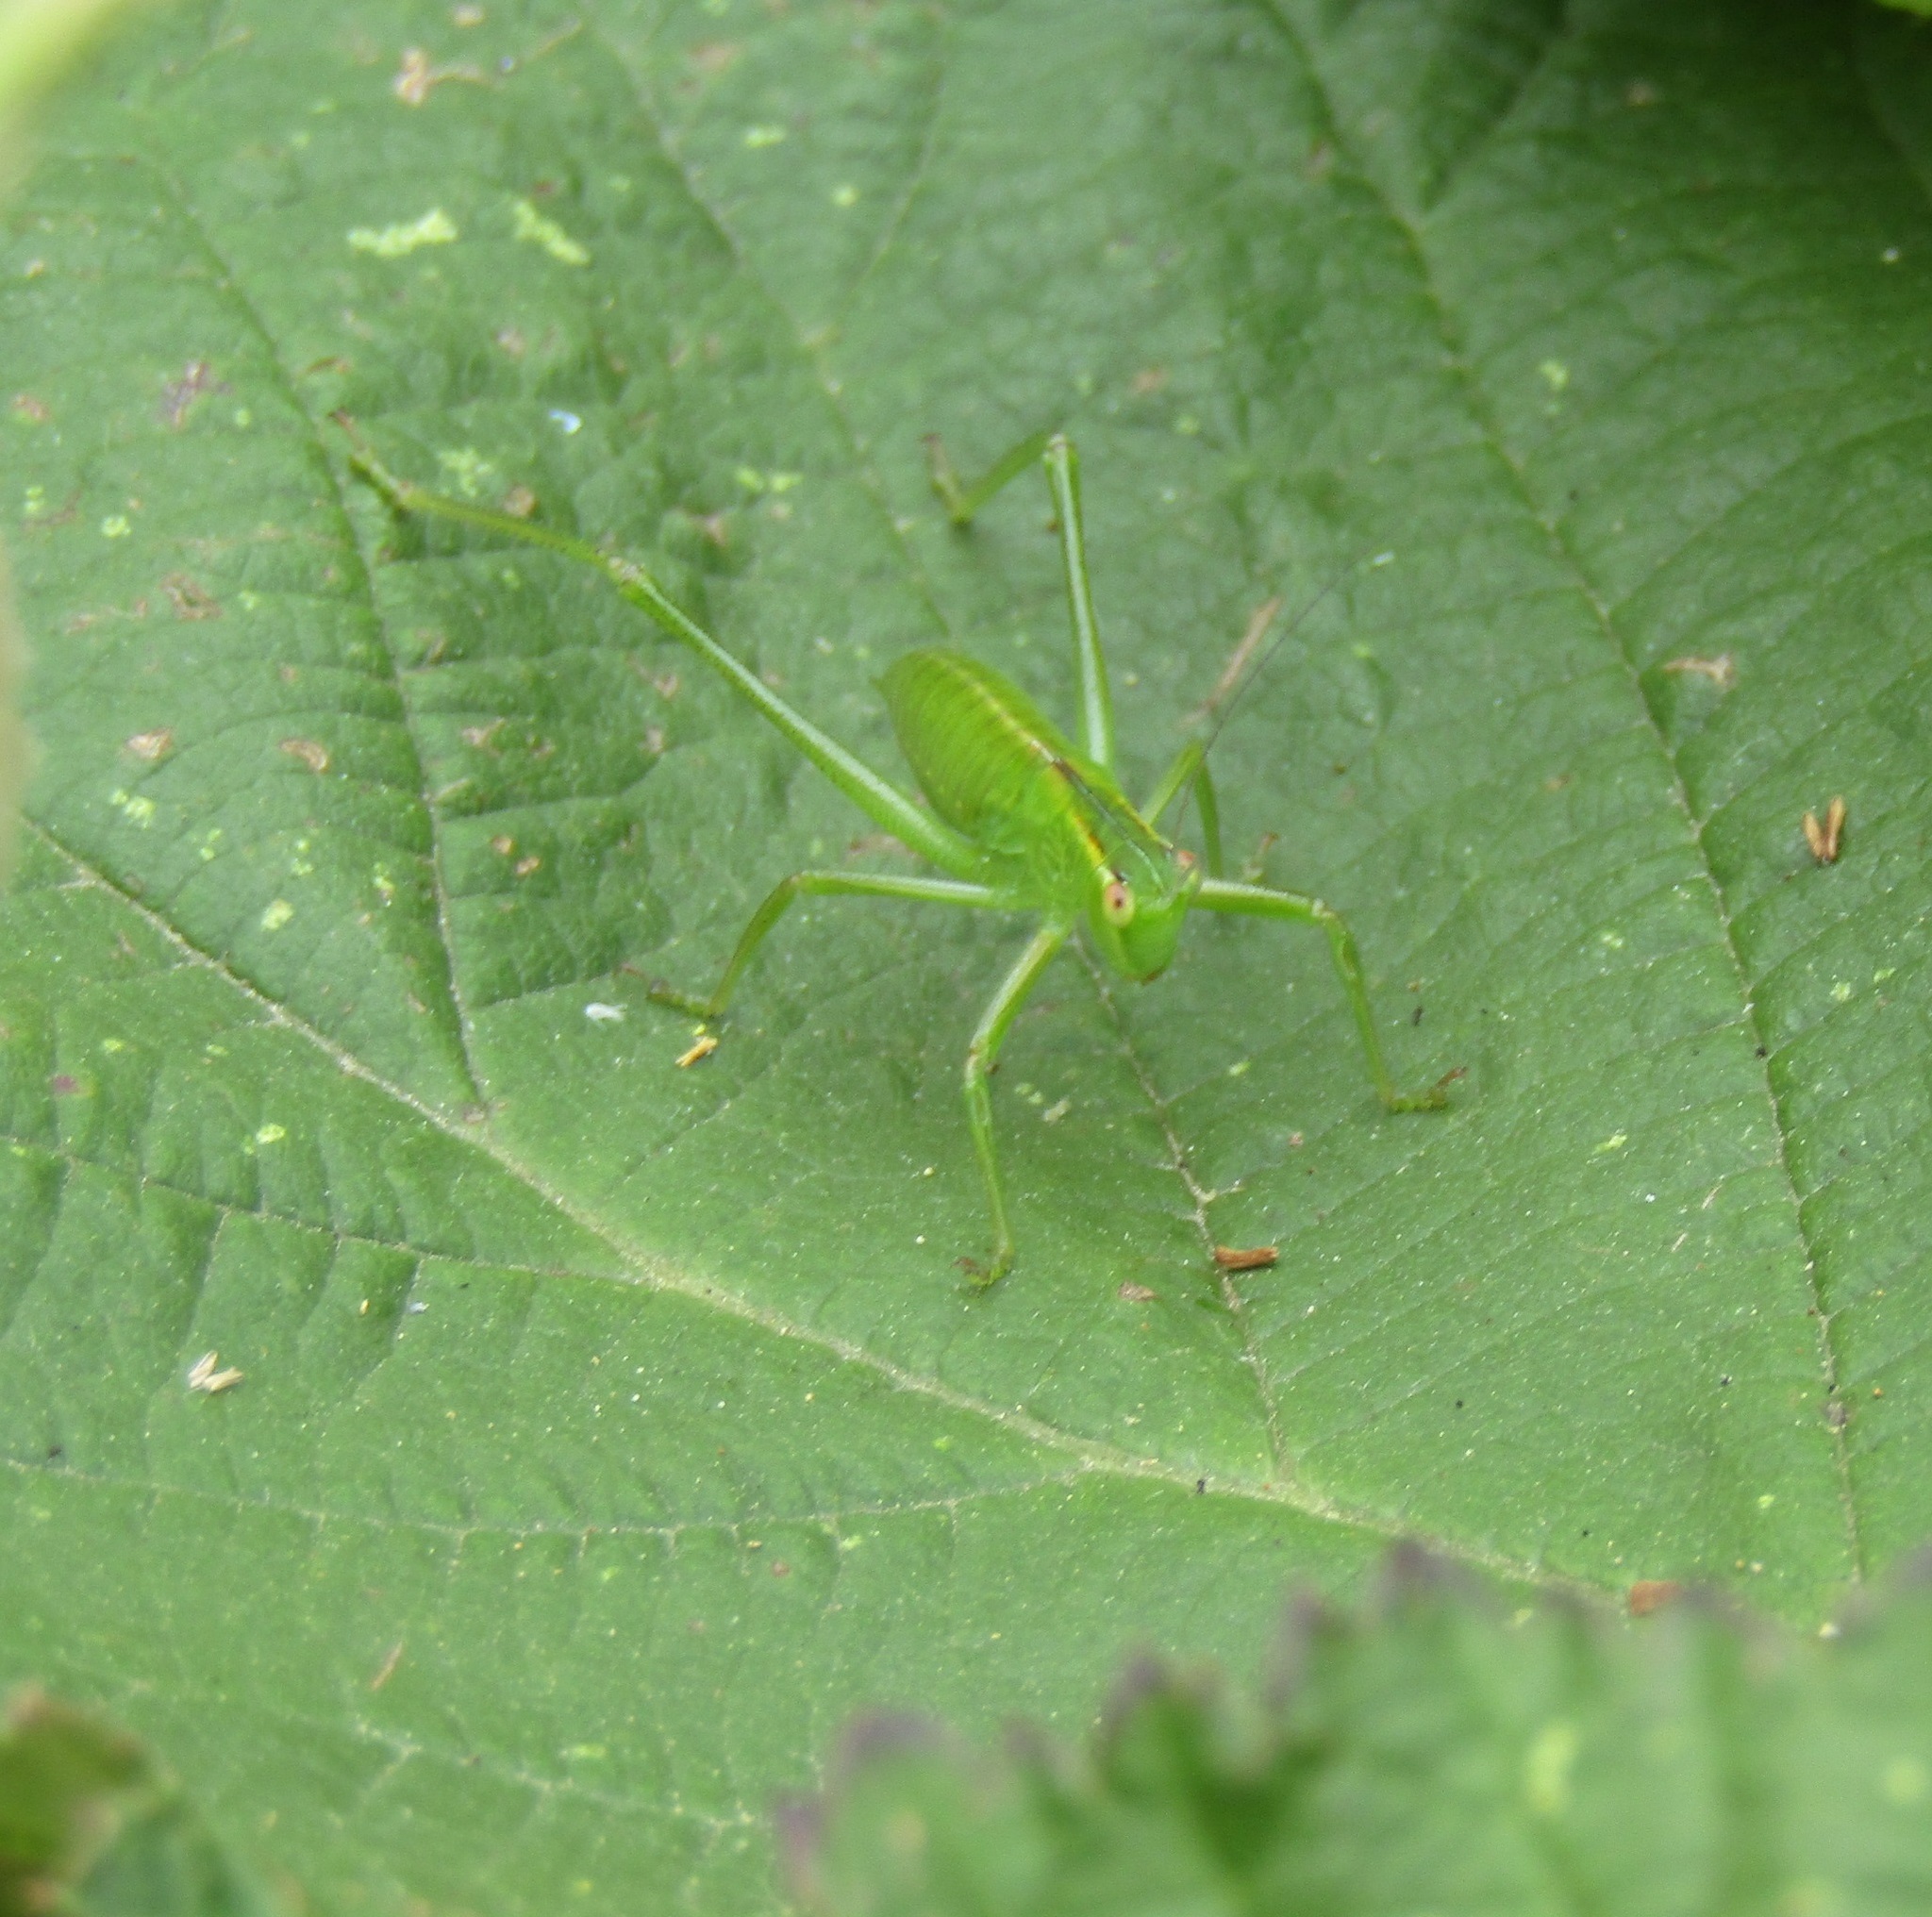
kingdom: Animalia
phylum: Arthropoda
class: Insecta
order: Orthoptera
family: Tettigoniidae
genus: Caedicia
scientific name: Caedicia simplex
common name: Common garden katydid
